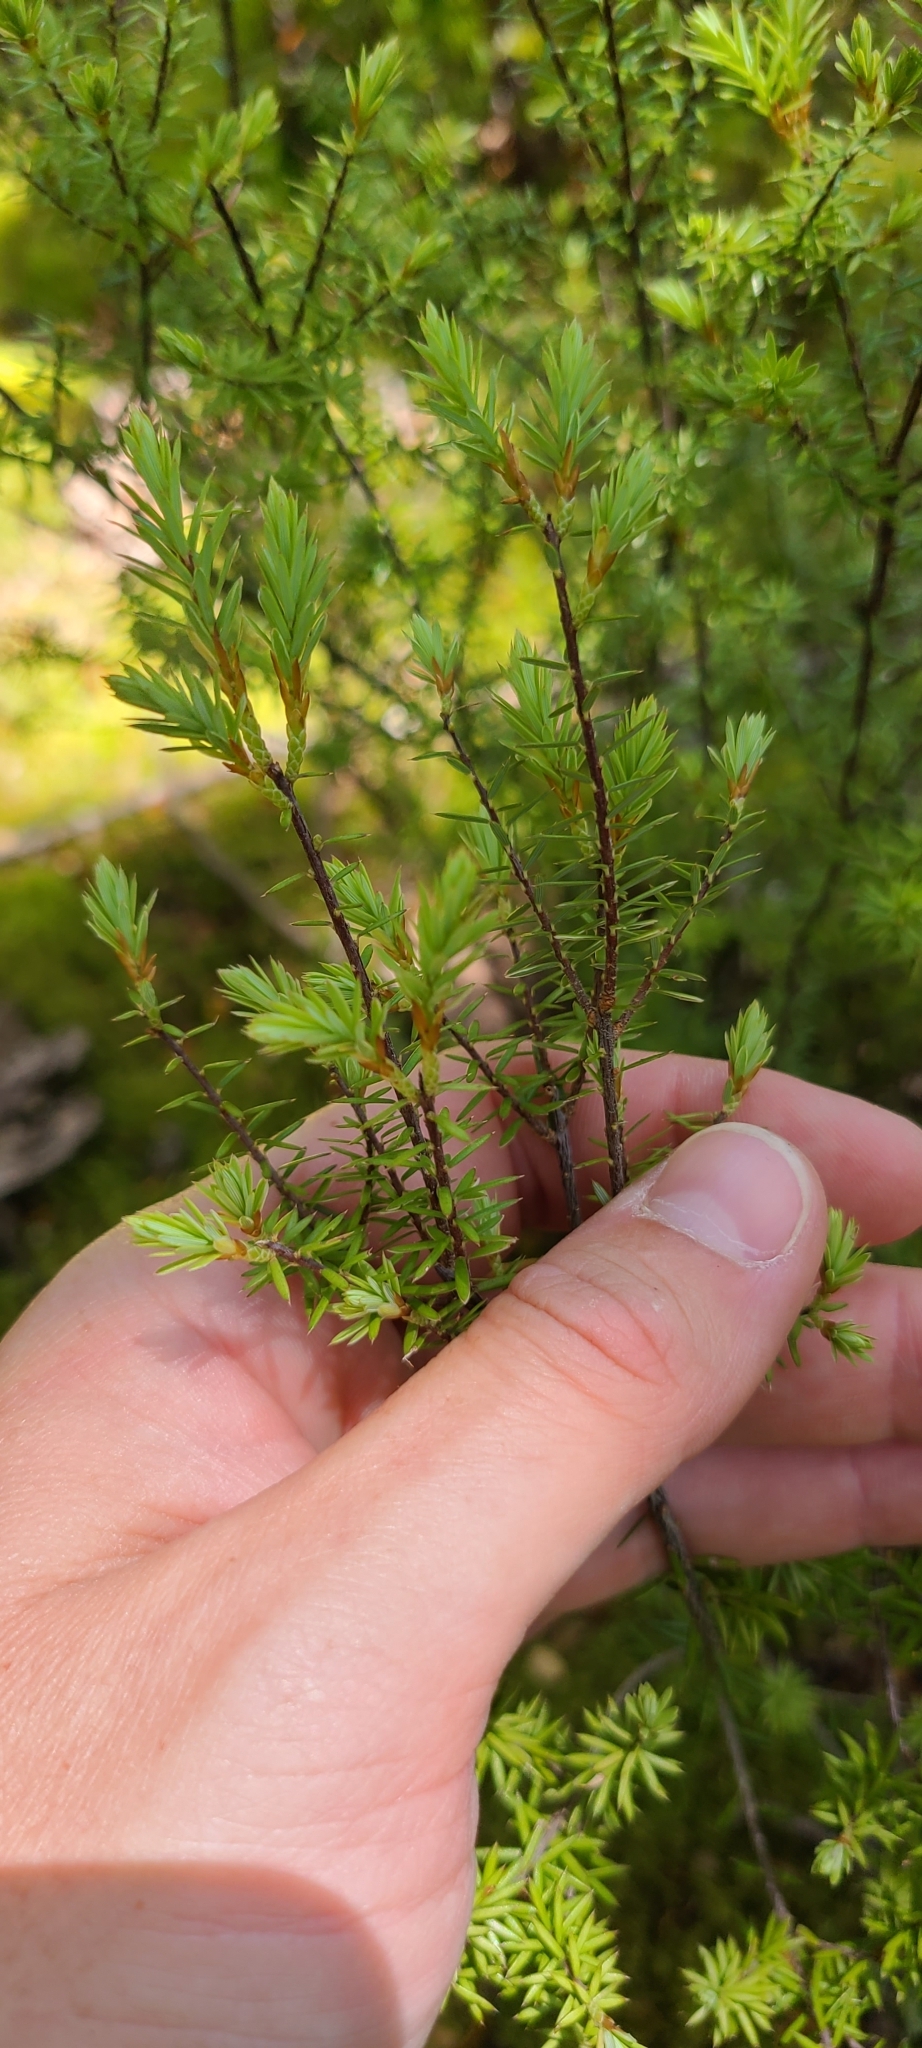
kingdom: Plantae
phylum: Tracheophyta
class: Magnoliopsida
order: Ericales
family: Ericaceae
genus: Leptecophylla
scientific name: Leptecophylla juniperina
